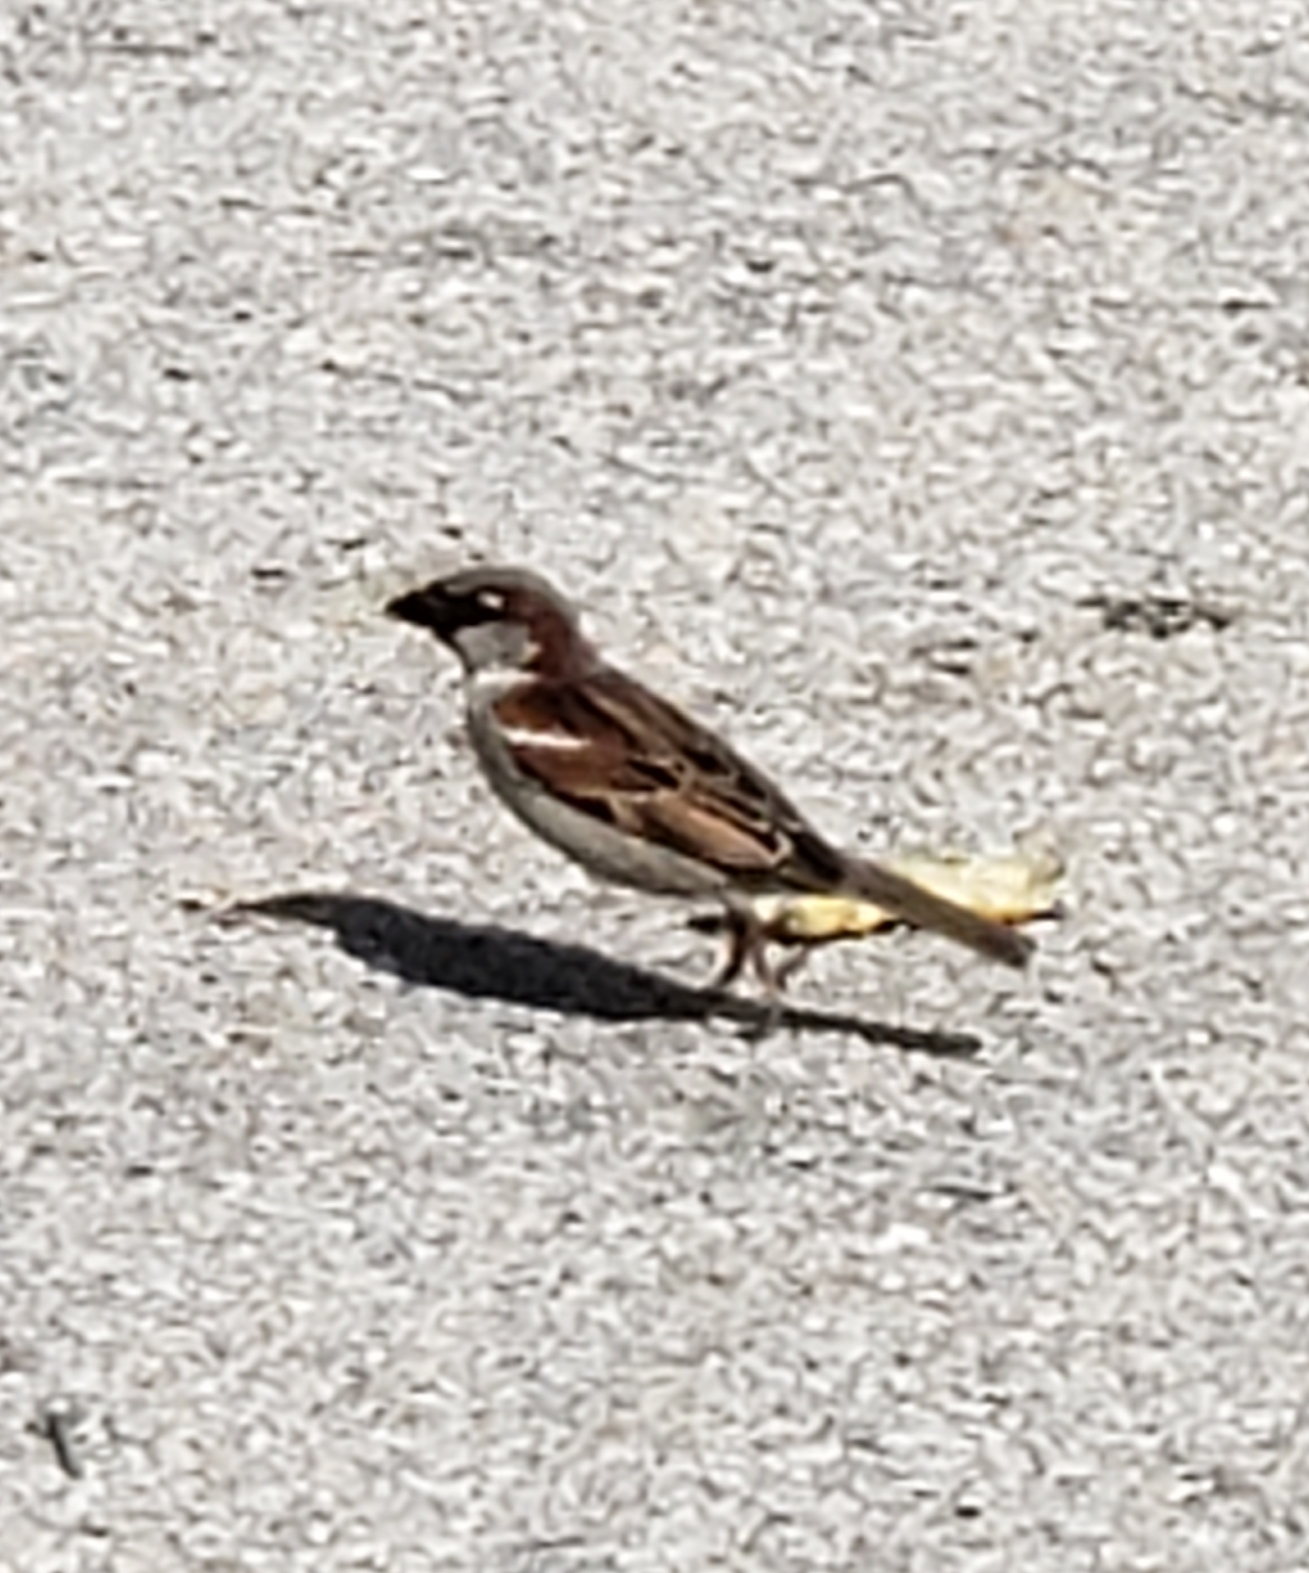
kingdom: Animalia
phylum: Chordata
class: Aves
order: Passeriformes
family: Passeridae
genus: Passer
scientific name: Passer domesticus
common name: House sparrow
